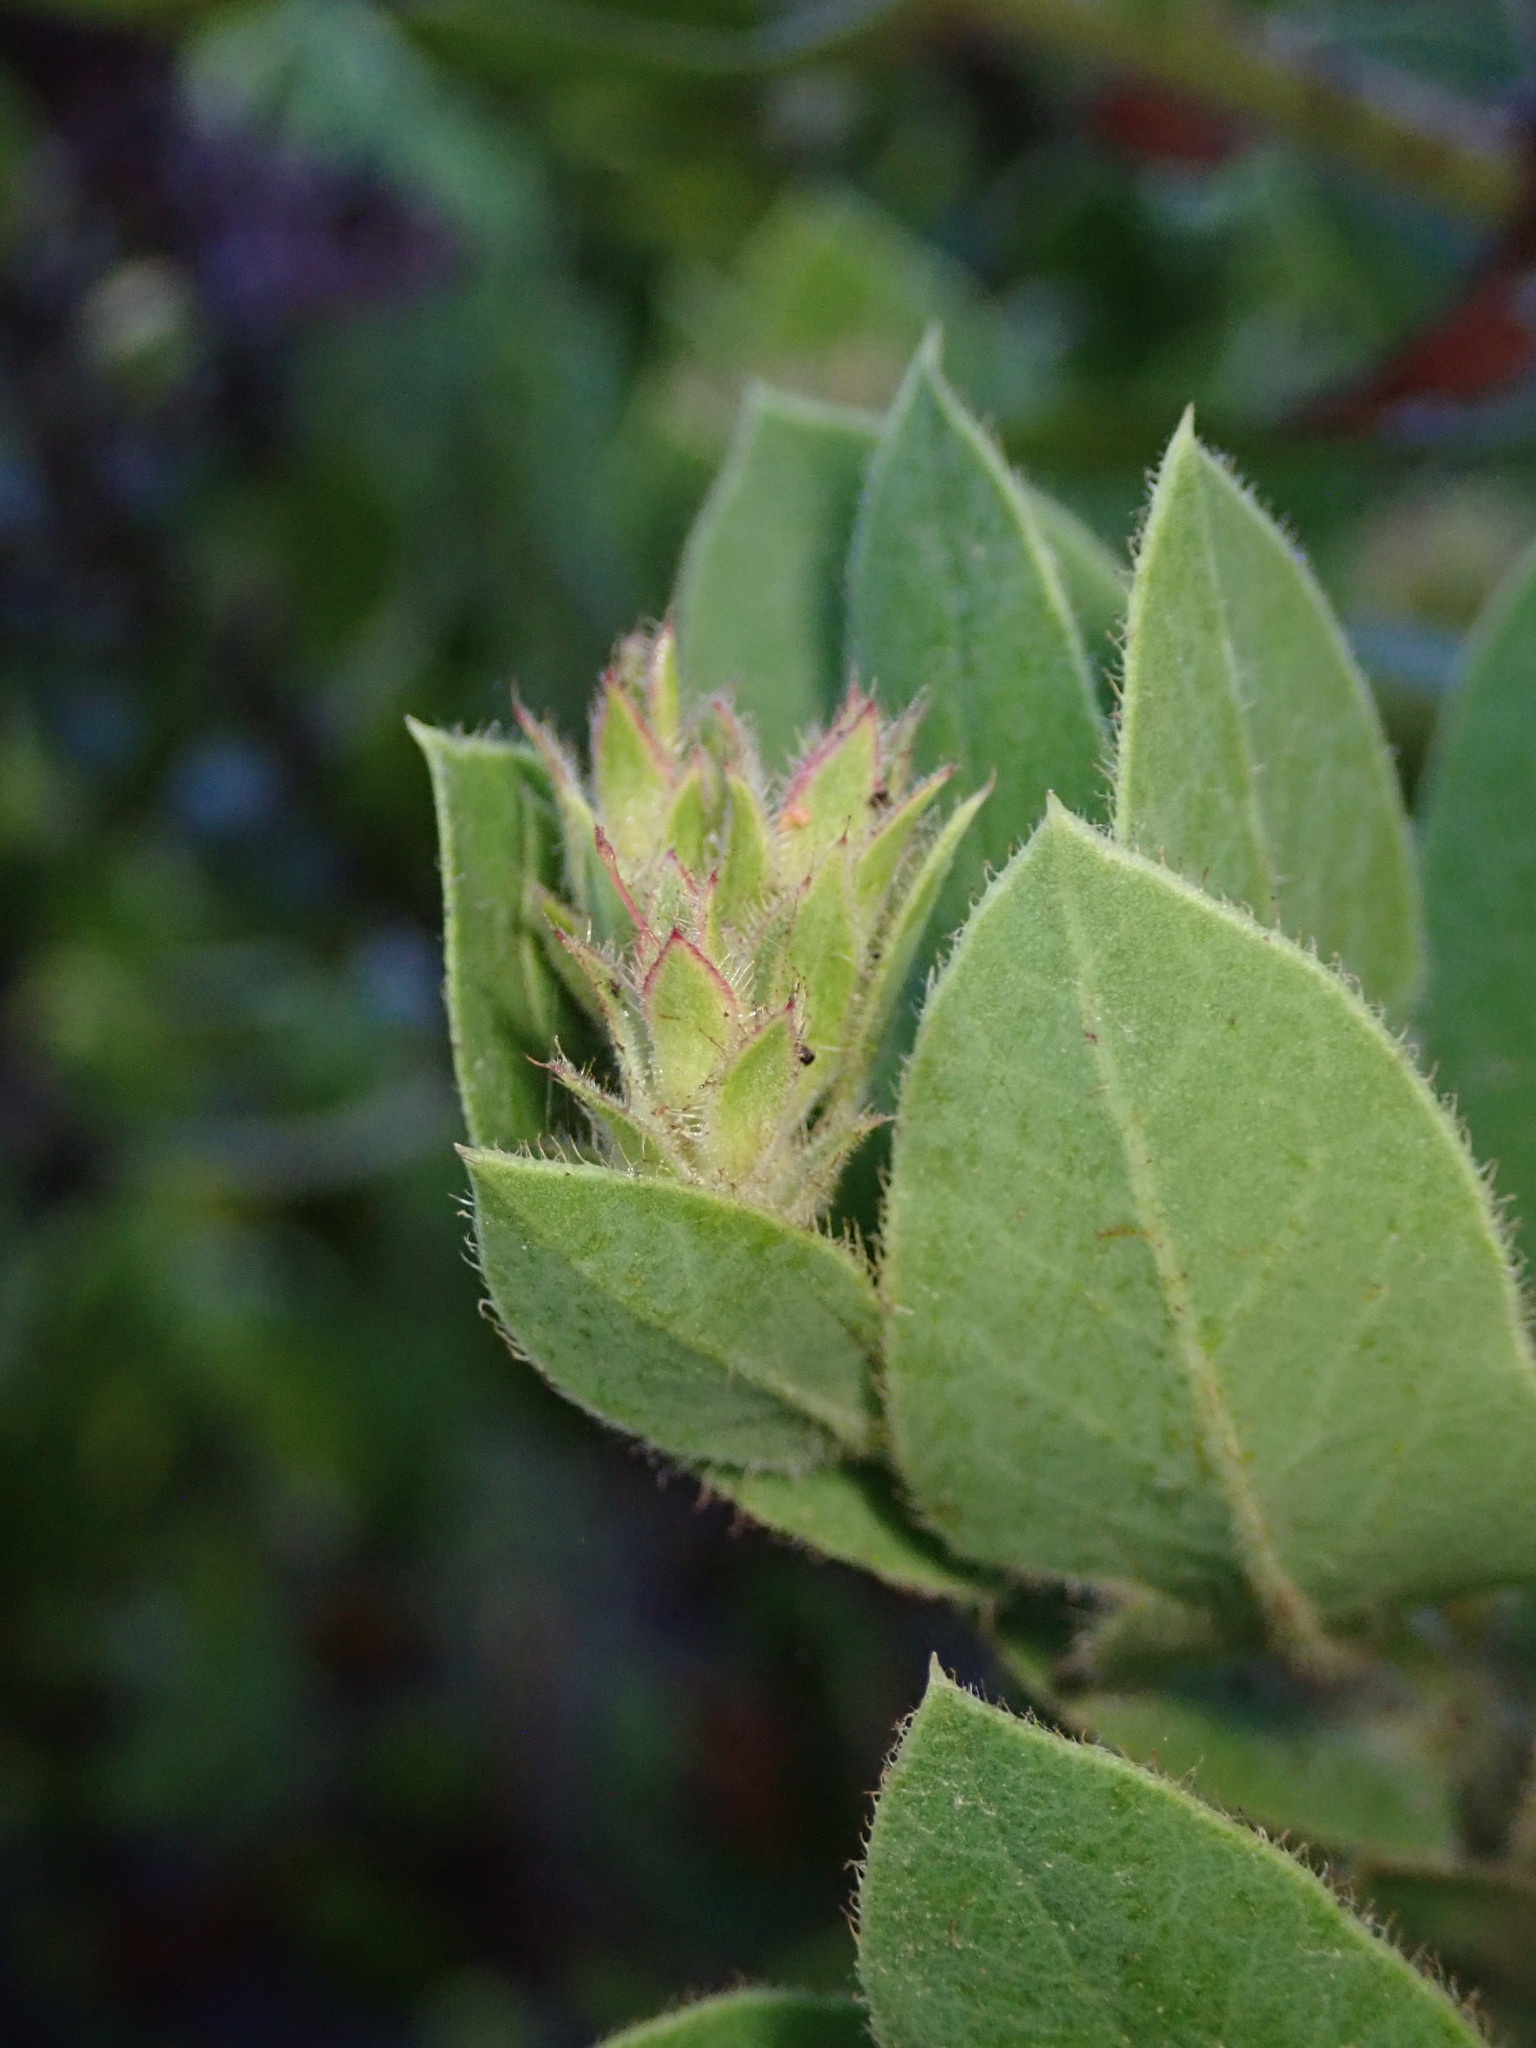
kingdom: Plantae
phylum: Tracheophyta
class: Magnoliopsida
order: Ericales
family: Ericaceae
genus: Arctostaphylos
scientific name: Arctostaphylos montaraensis
